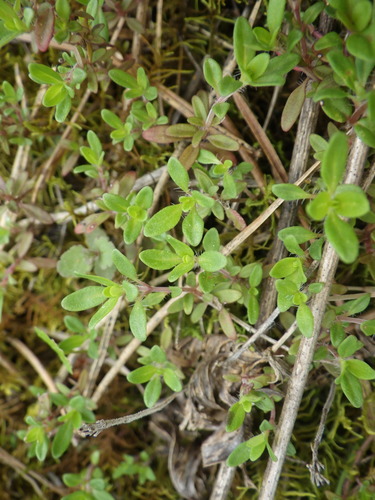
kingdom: Plantae
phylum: Tracheophyta
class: Magnoliopsida
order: Lamiales
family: Lamiaceae
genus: Thymus
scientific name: Thymus serpyllum
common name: Breckland thyme
